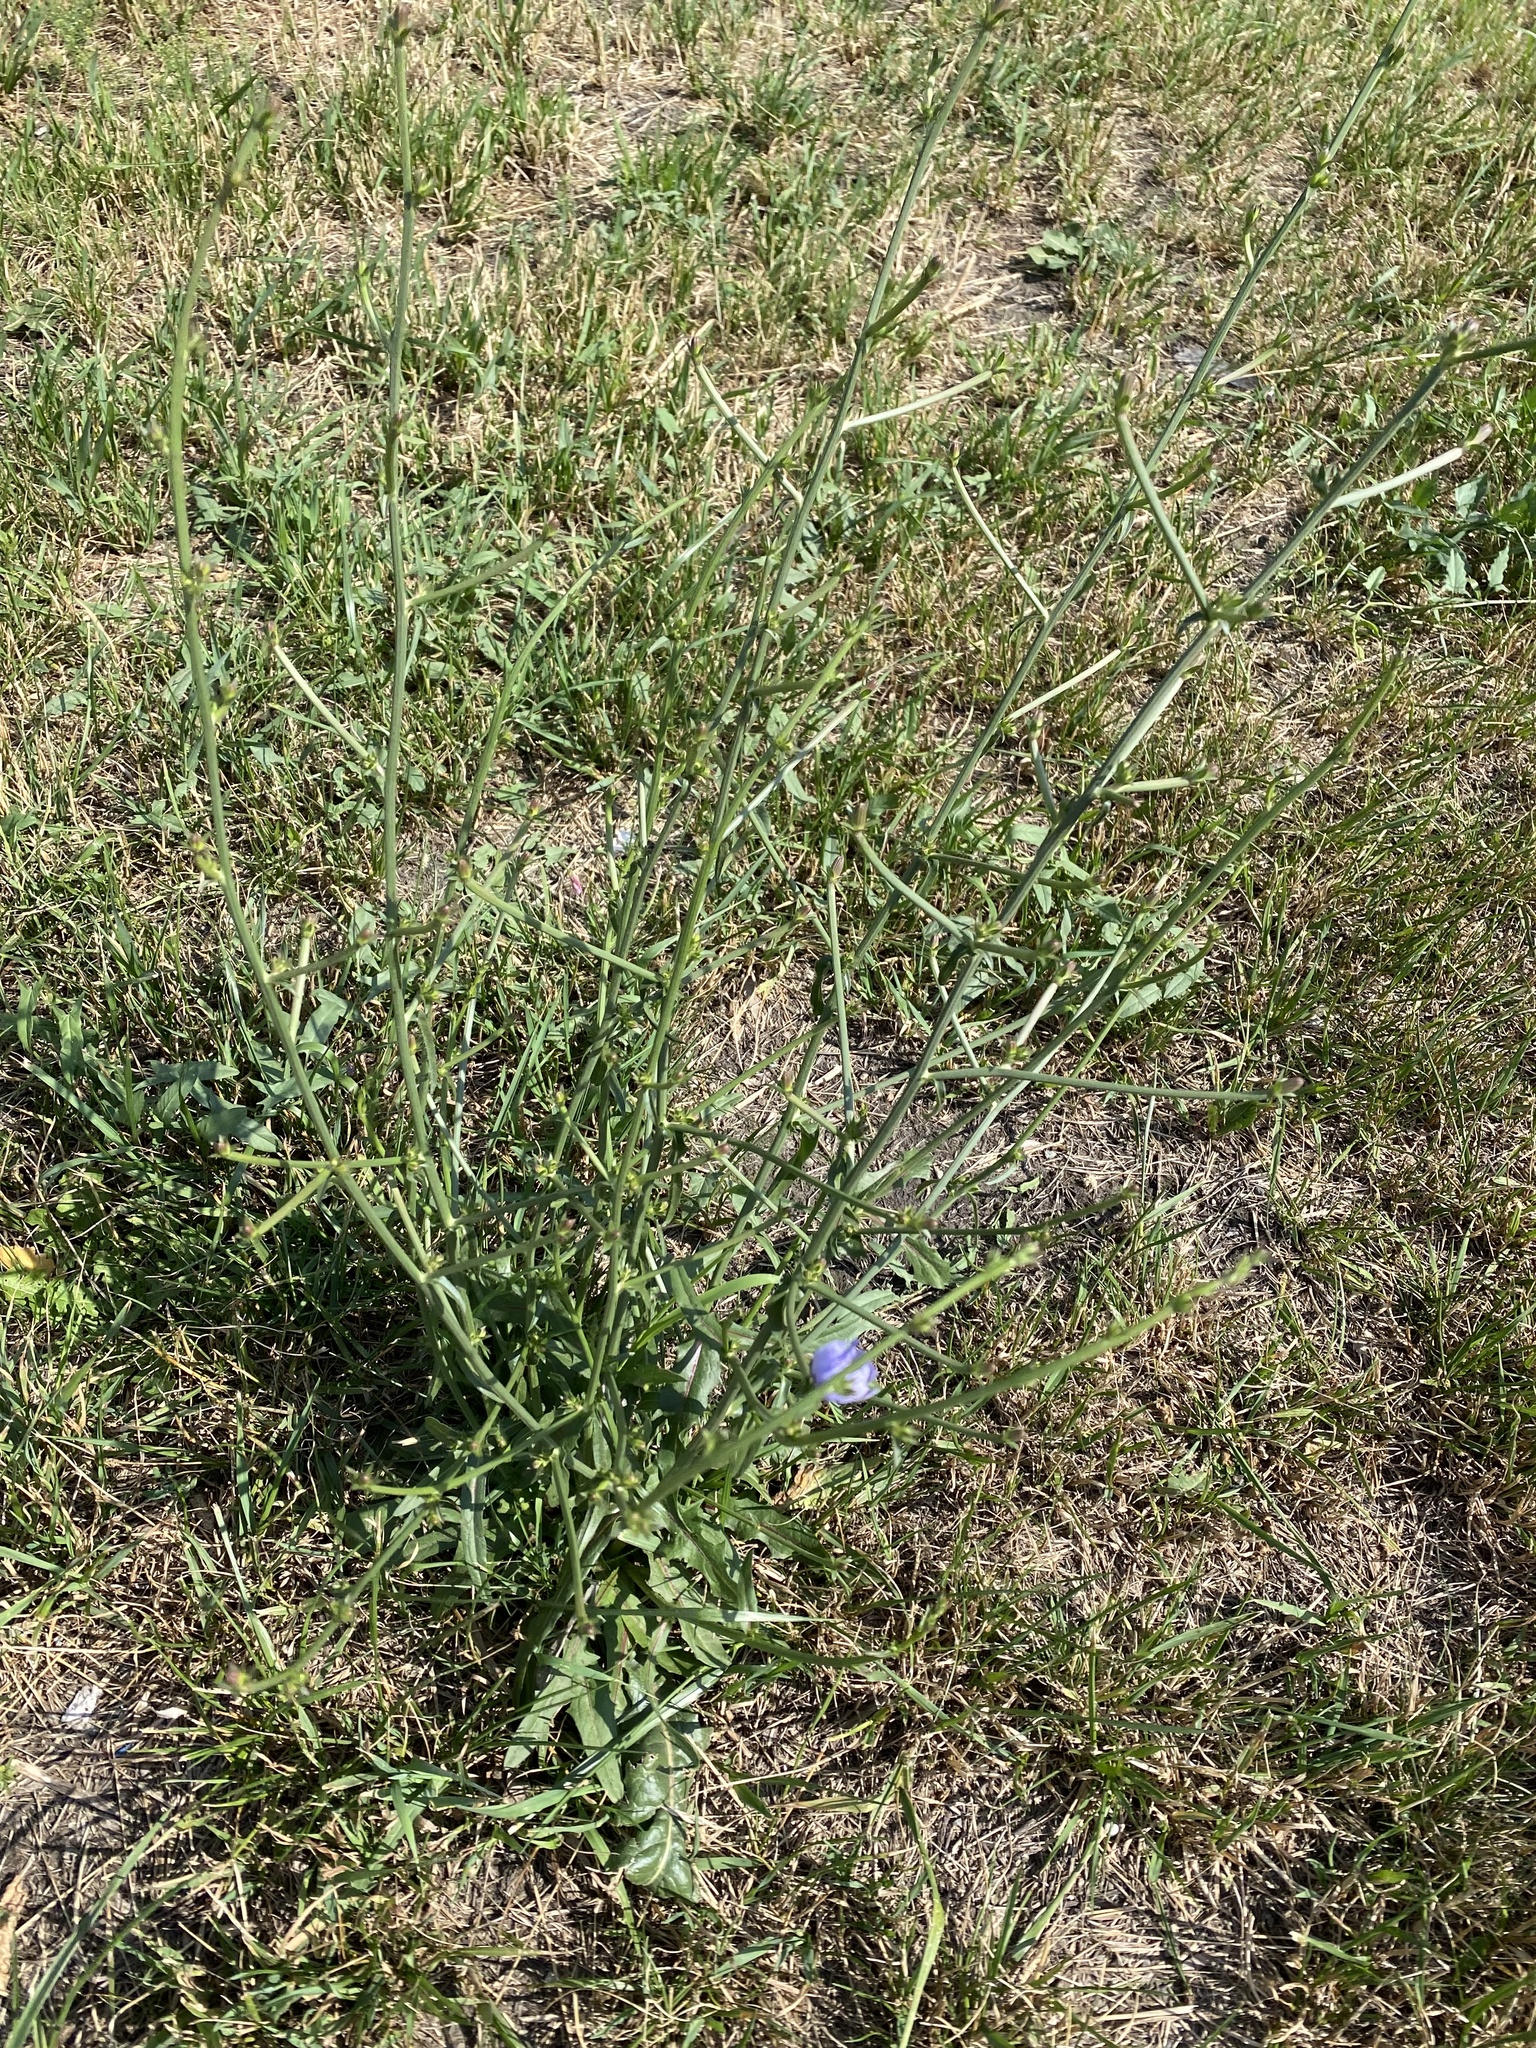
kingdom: Plantae
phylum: Tracheophyta
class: Magnoliopsida
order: Asterales
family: Asteraceae
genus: Cichorium
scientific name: Cichorium intybus
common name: Chicory
